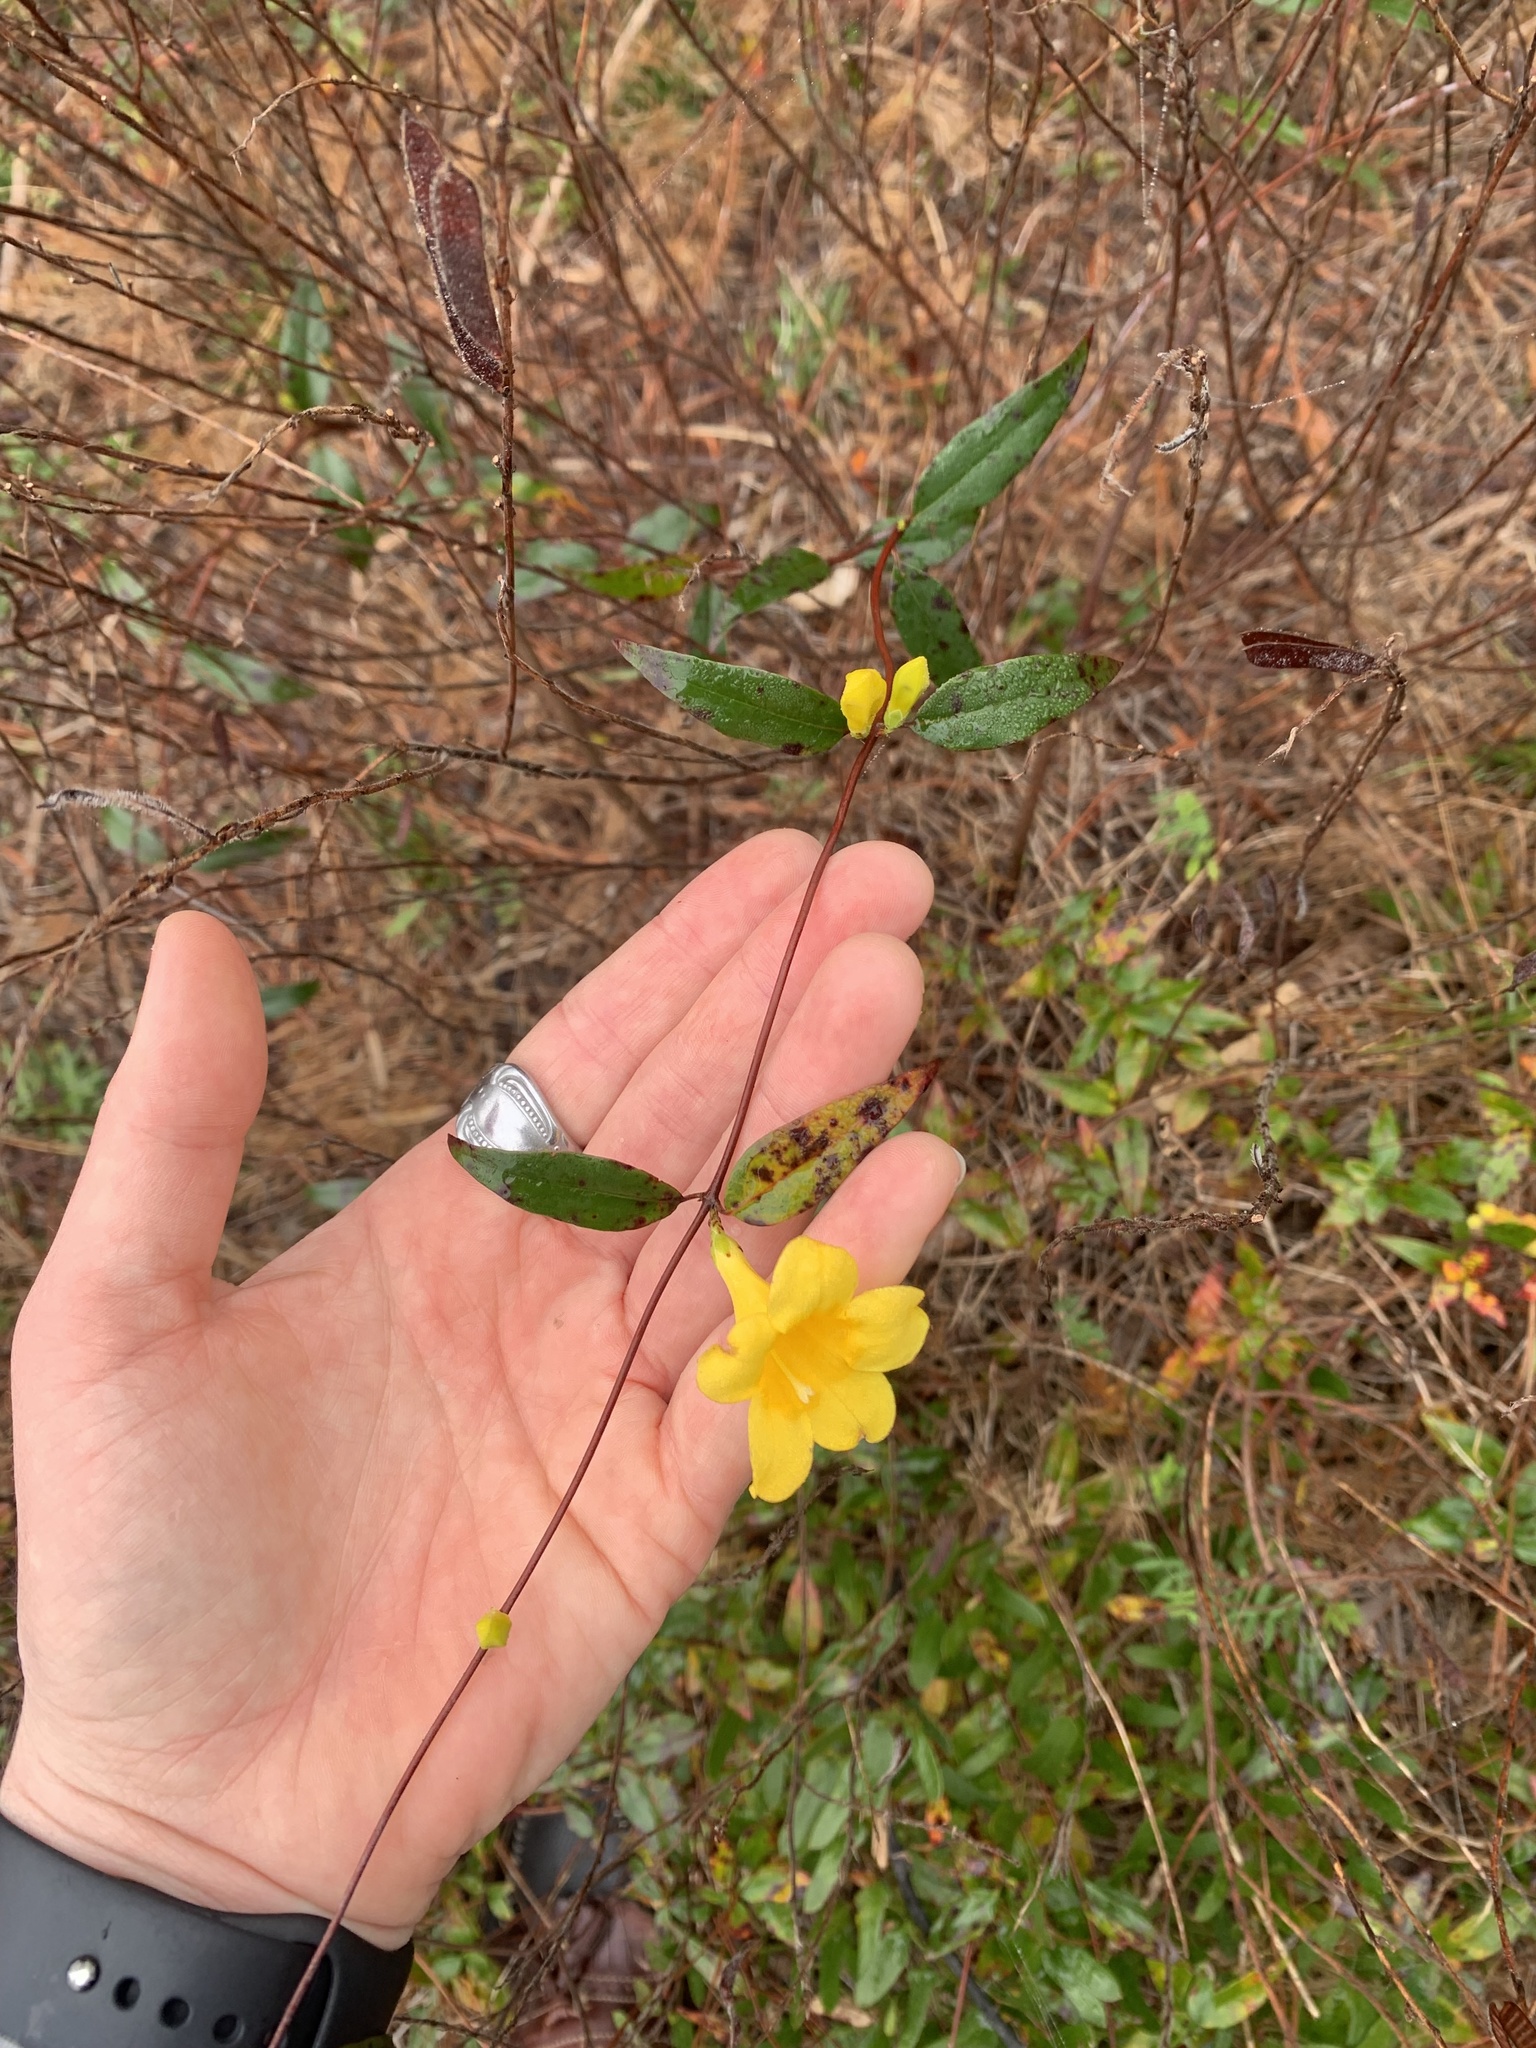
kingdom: Plantae
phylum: Tracheophyta
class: Magnoliopsida
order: Gentianales
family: Gelsemiaceae
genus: Gelsemium
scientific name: Gelsemium sempervirens
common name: Carolina-jasmine
